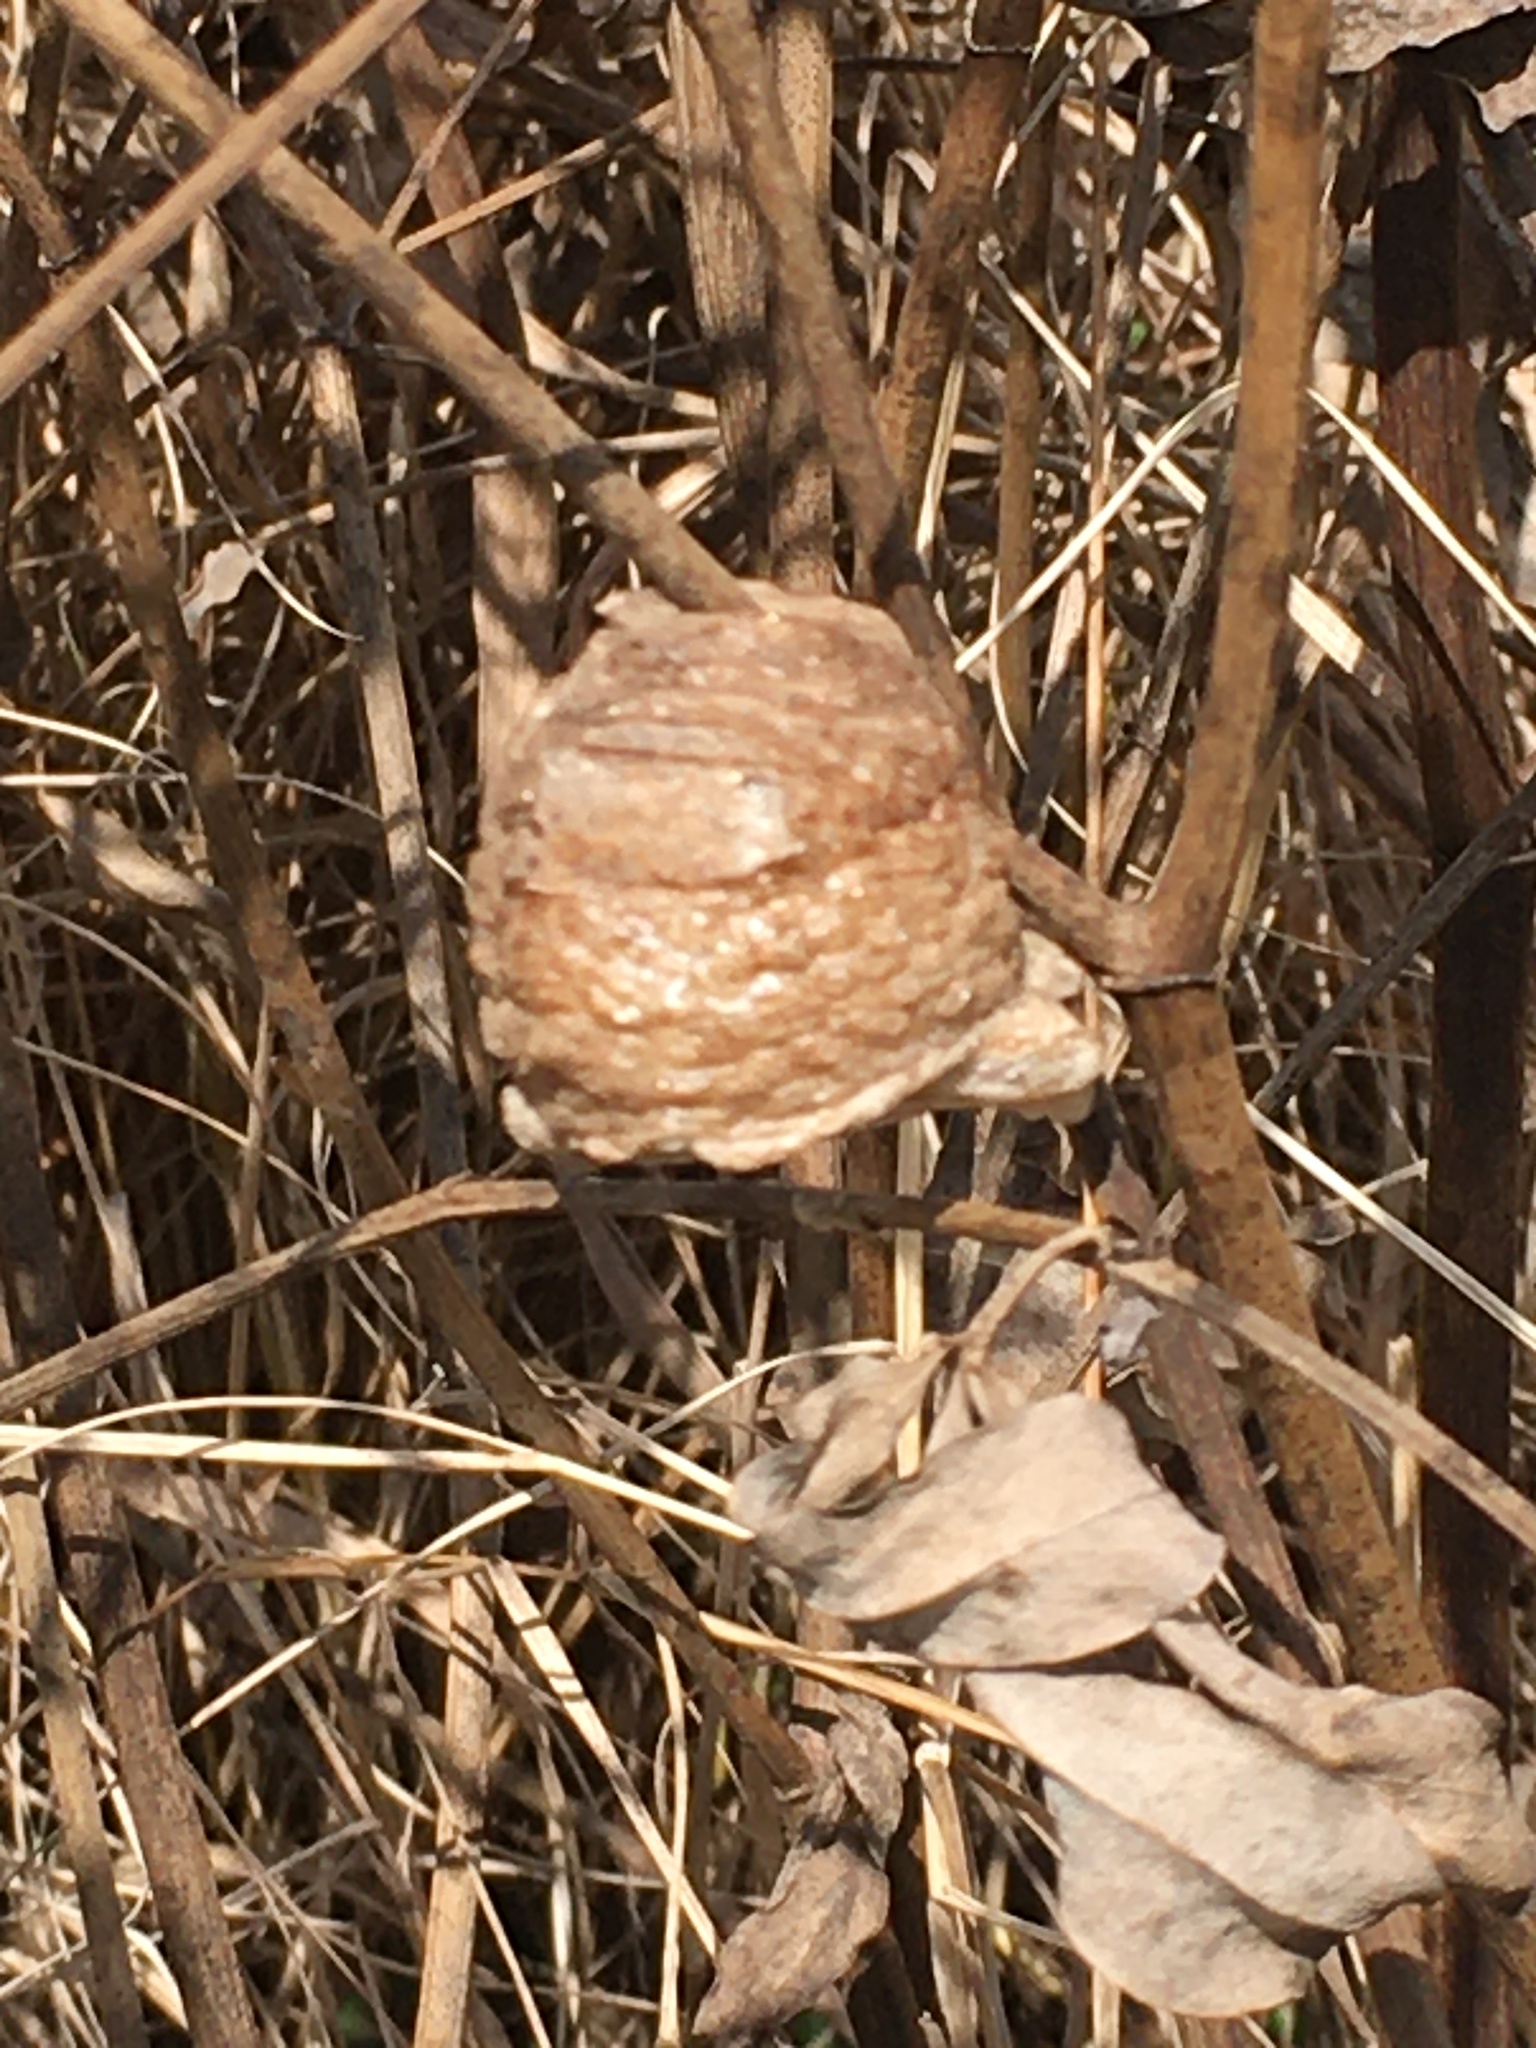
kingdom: Animalia
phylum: Arthropoda
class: Insecta
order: Mantodea
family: Mantidae
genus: Tenodera
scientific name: Tenodera sinensis
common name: Chinese mantis
